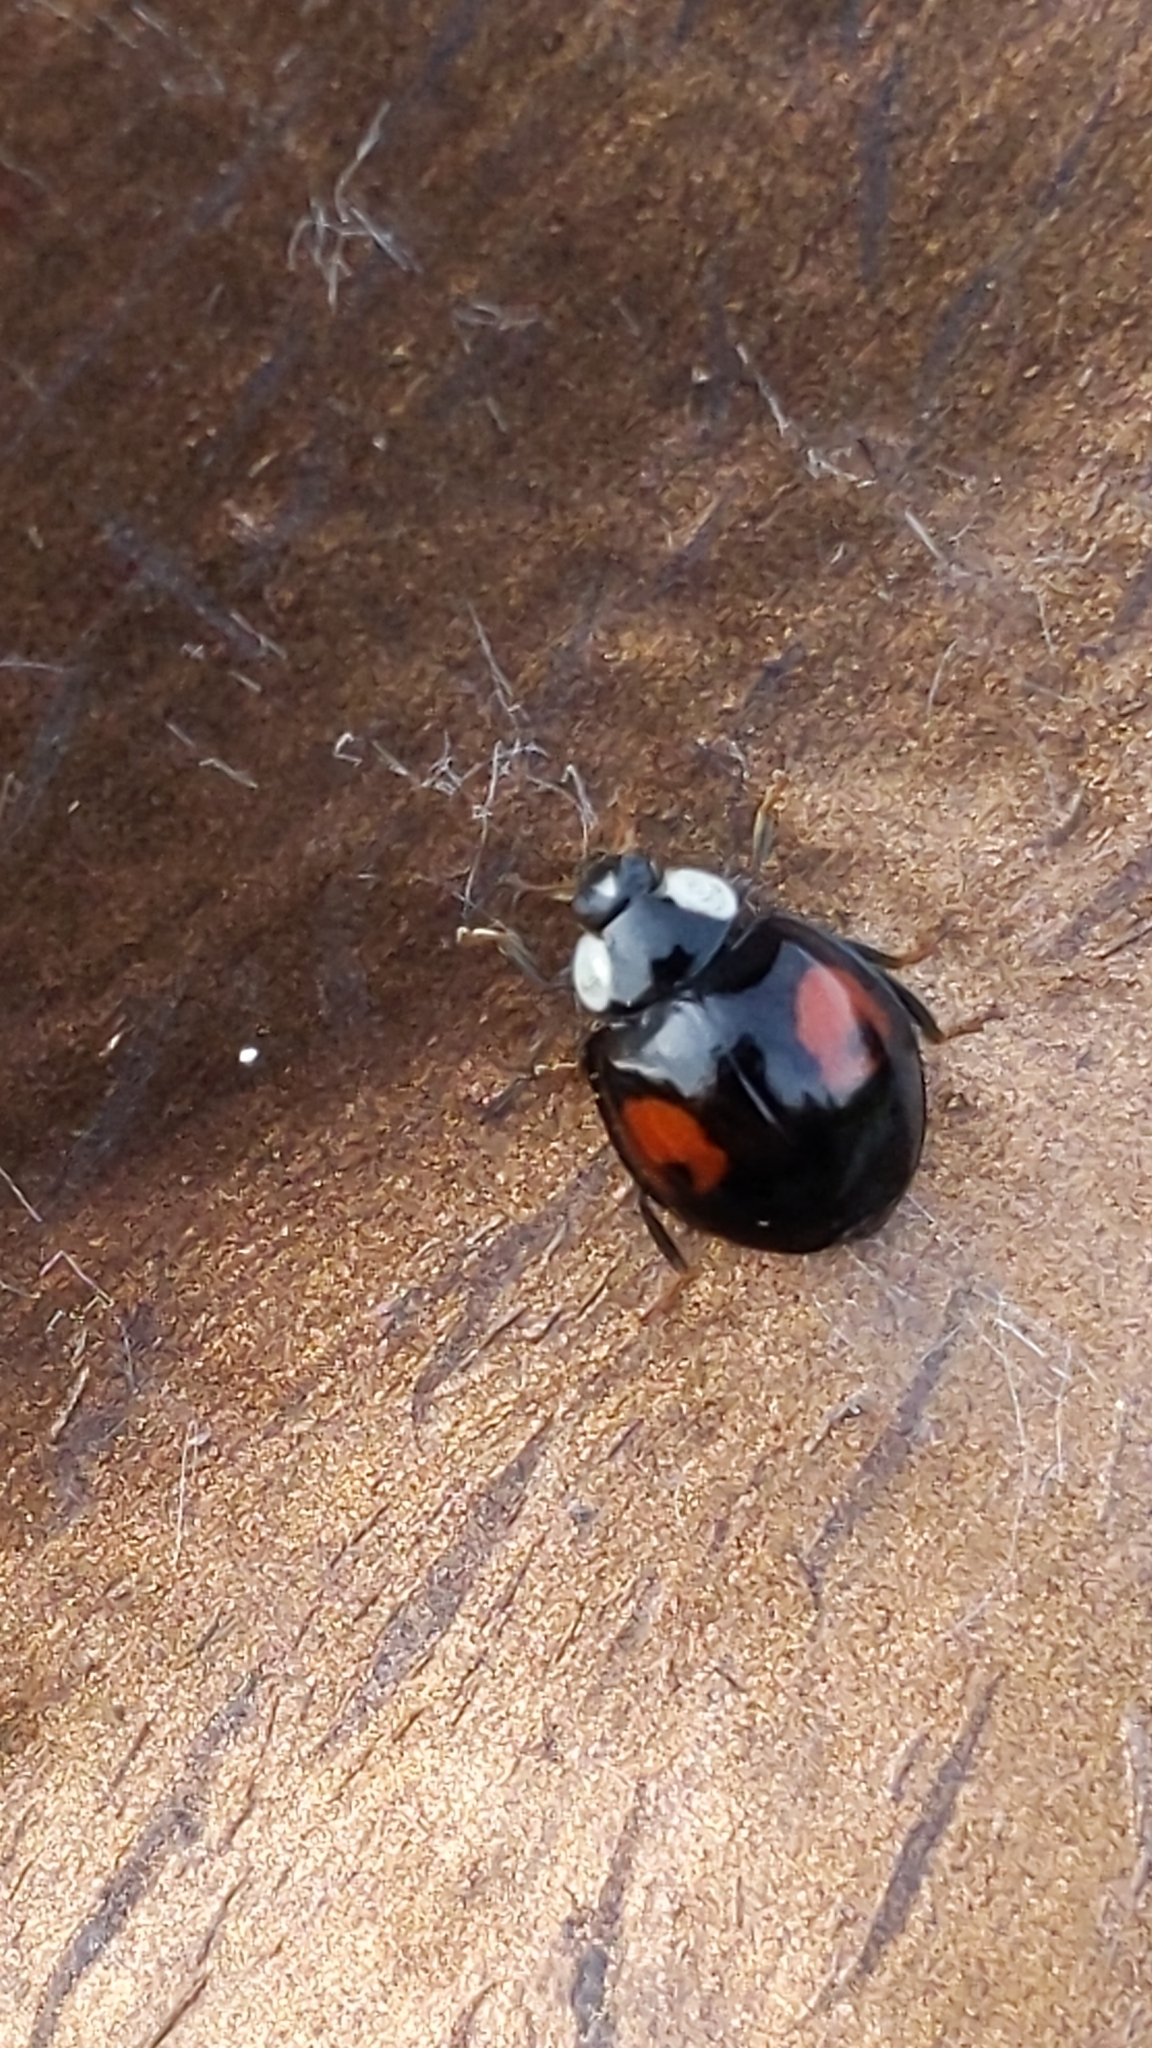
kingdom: Animalia
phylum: Arthropoda
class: Insecta
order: Coleoptera
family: Coccinellidae
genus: Harmonia
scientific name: Harmonia axyridis
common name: Harlequin ladybird
